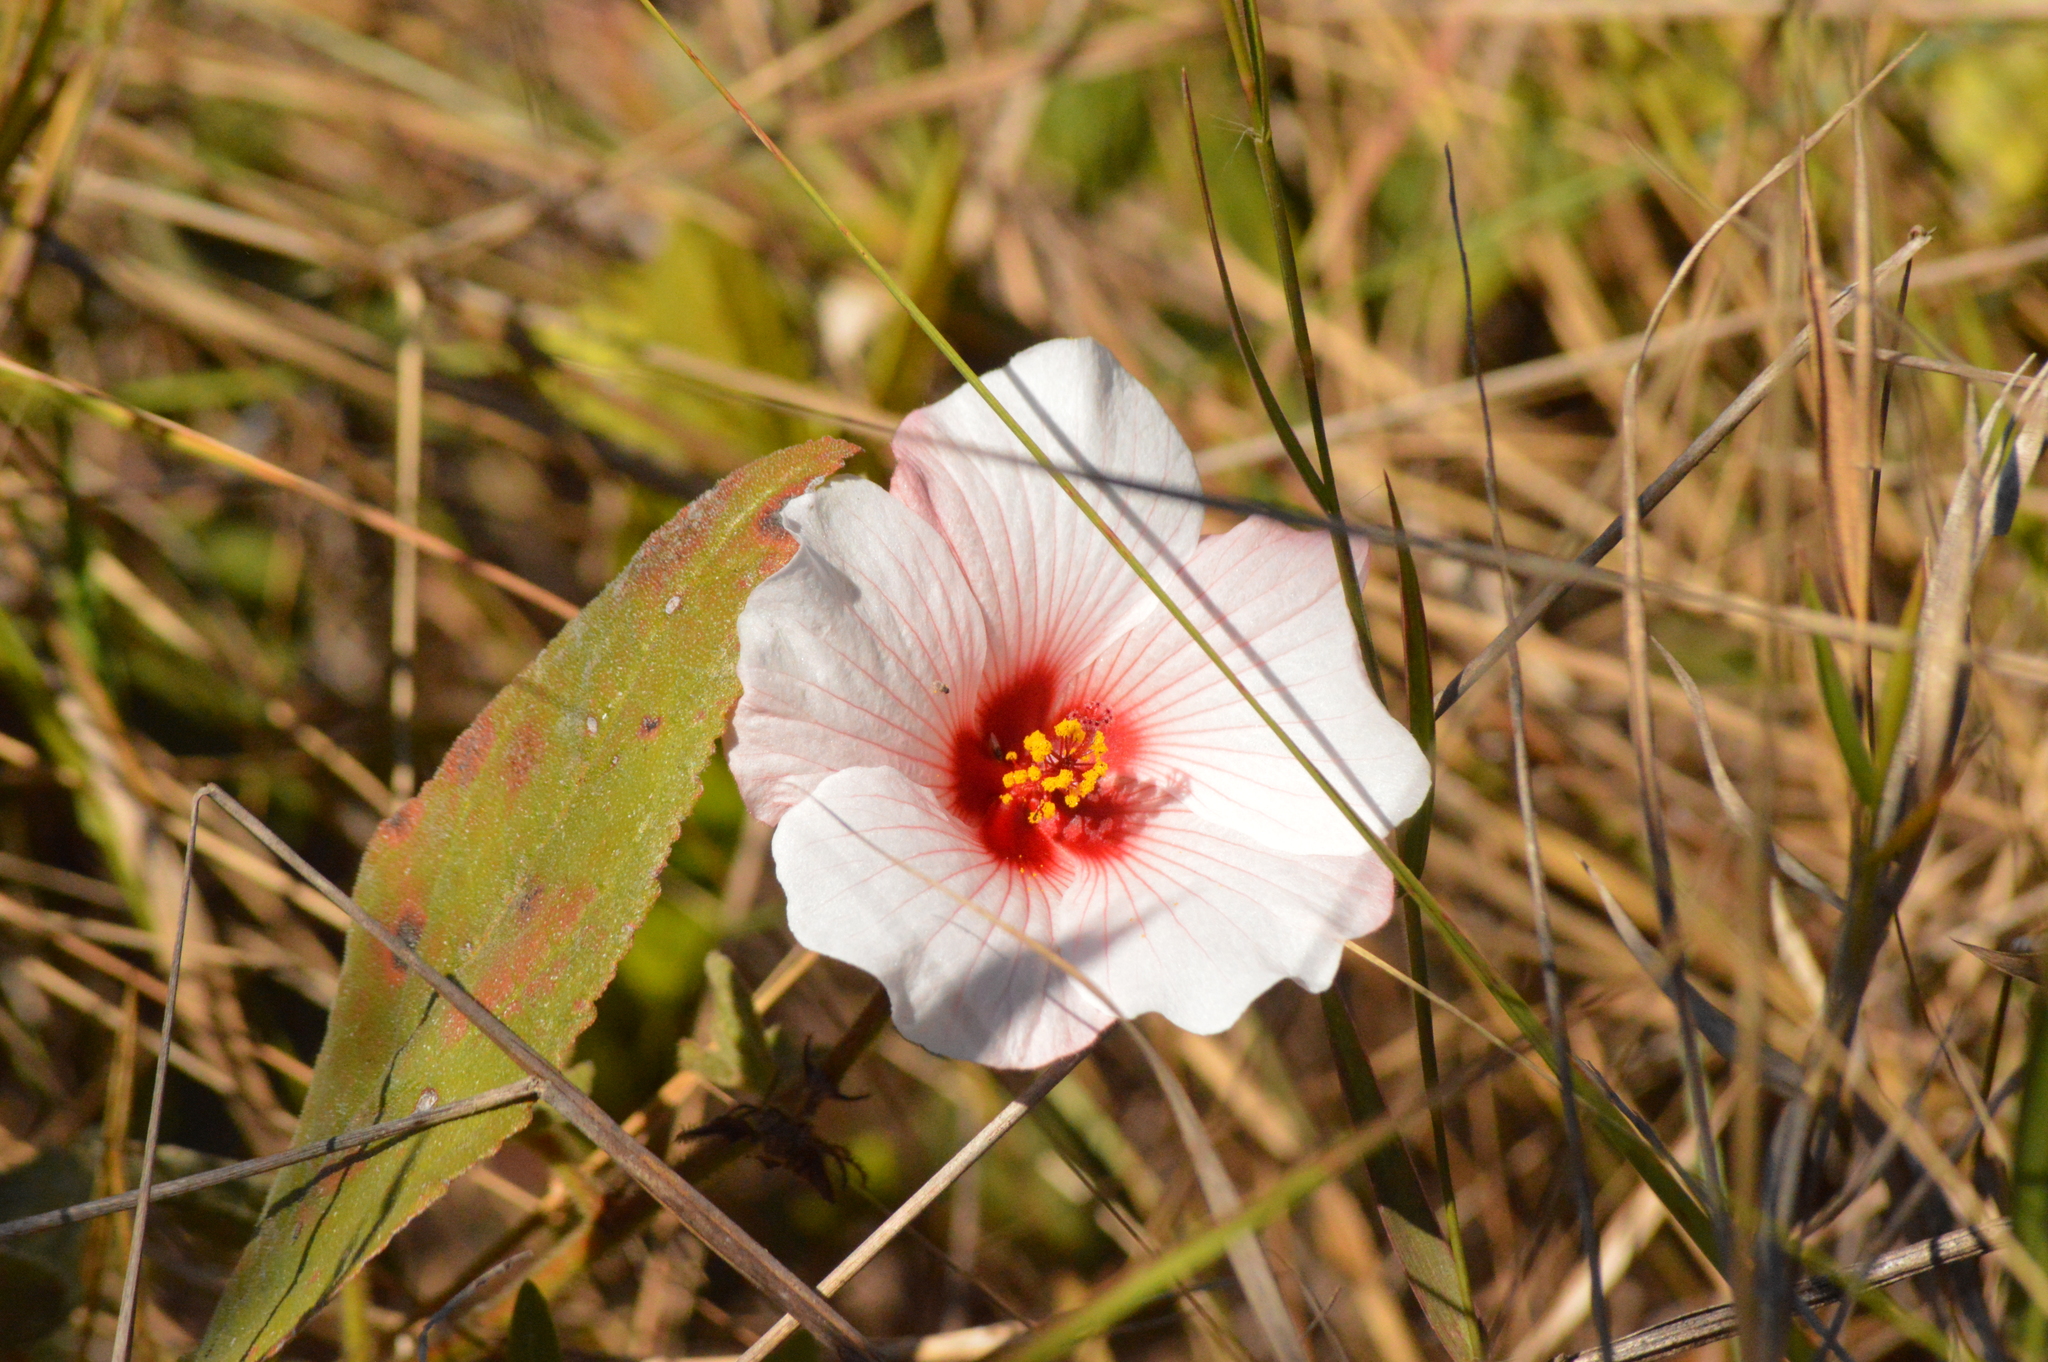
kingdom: Plantae
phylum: Tracheophyta
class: Magnoliopsida
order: Malvales
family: Malvaceae
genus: Peltaea
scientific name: Peltaea polymorpha
